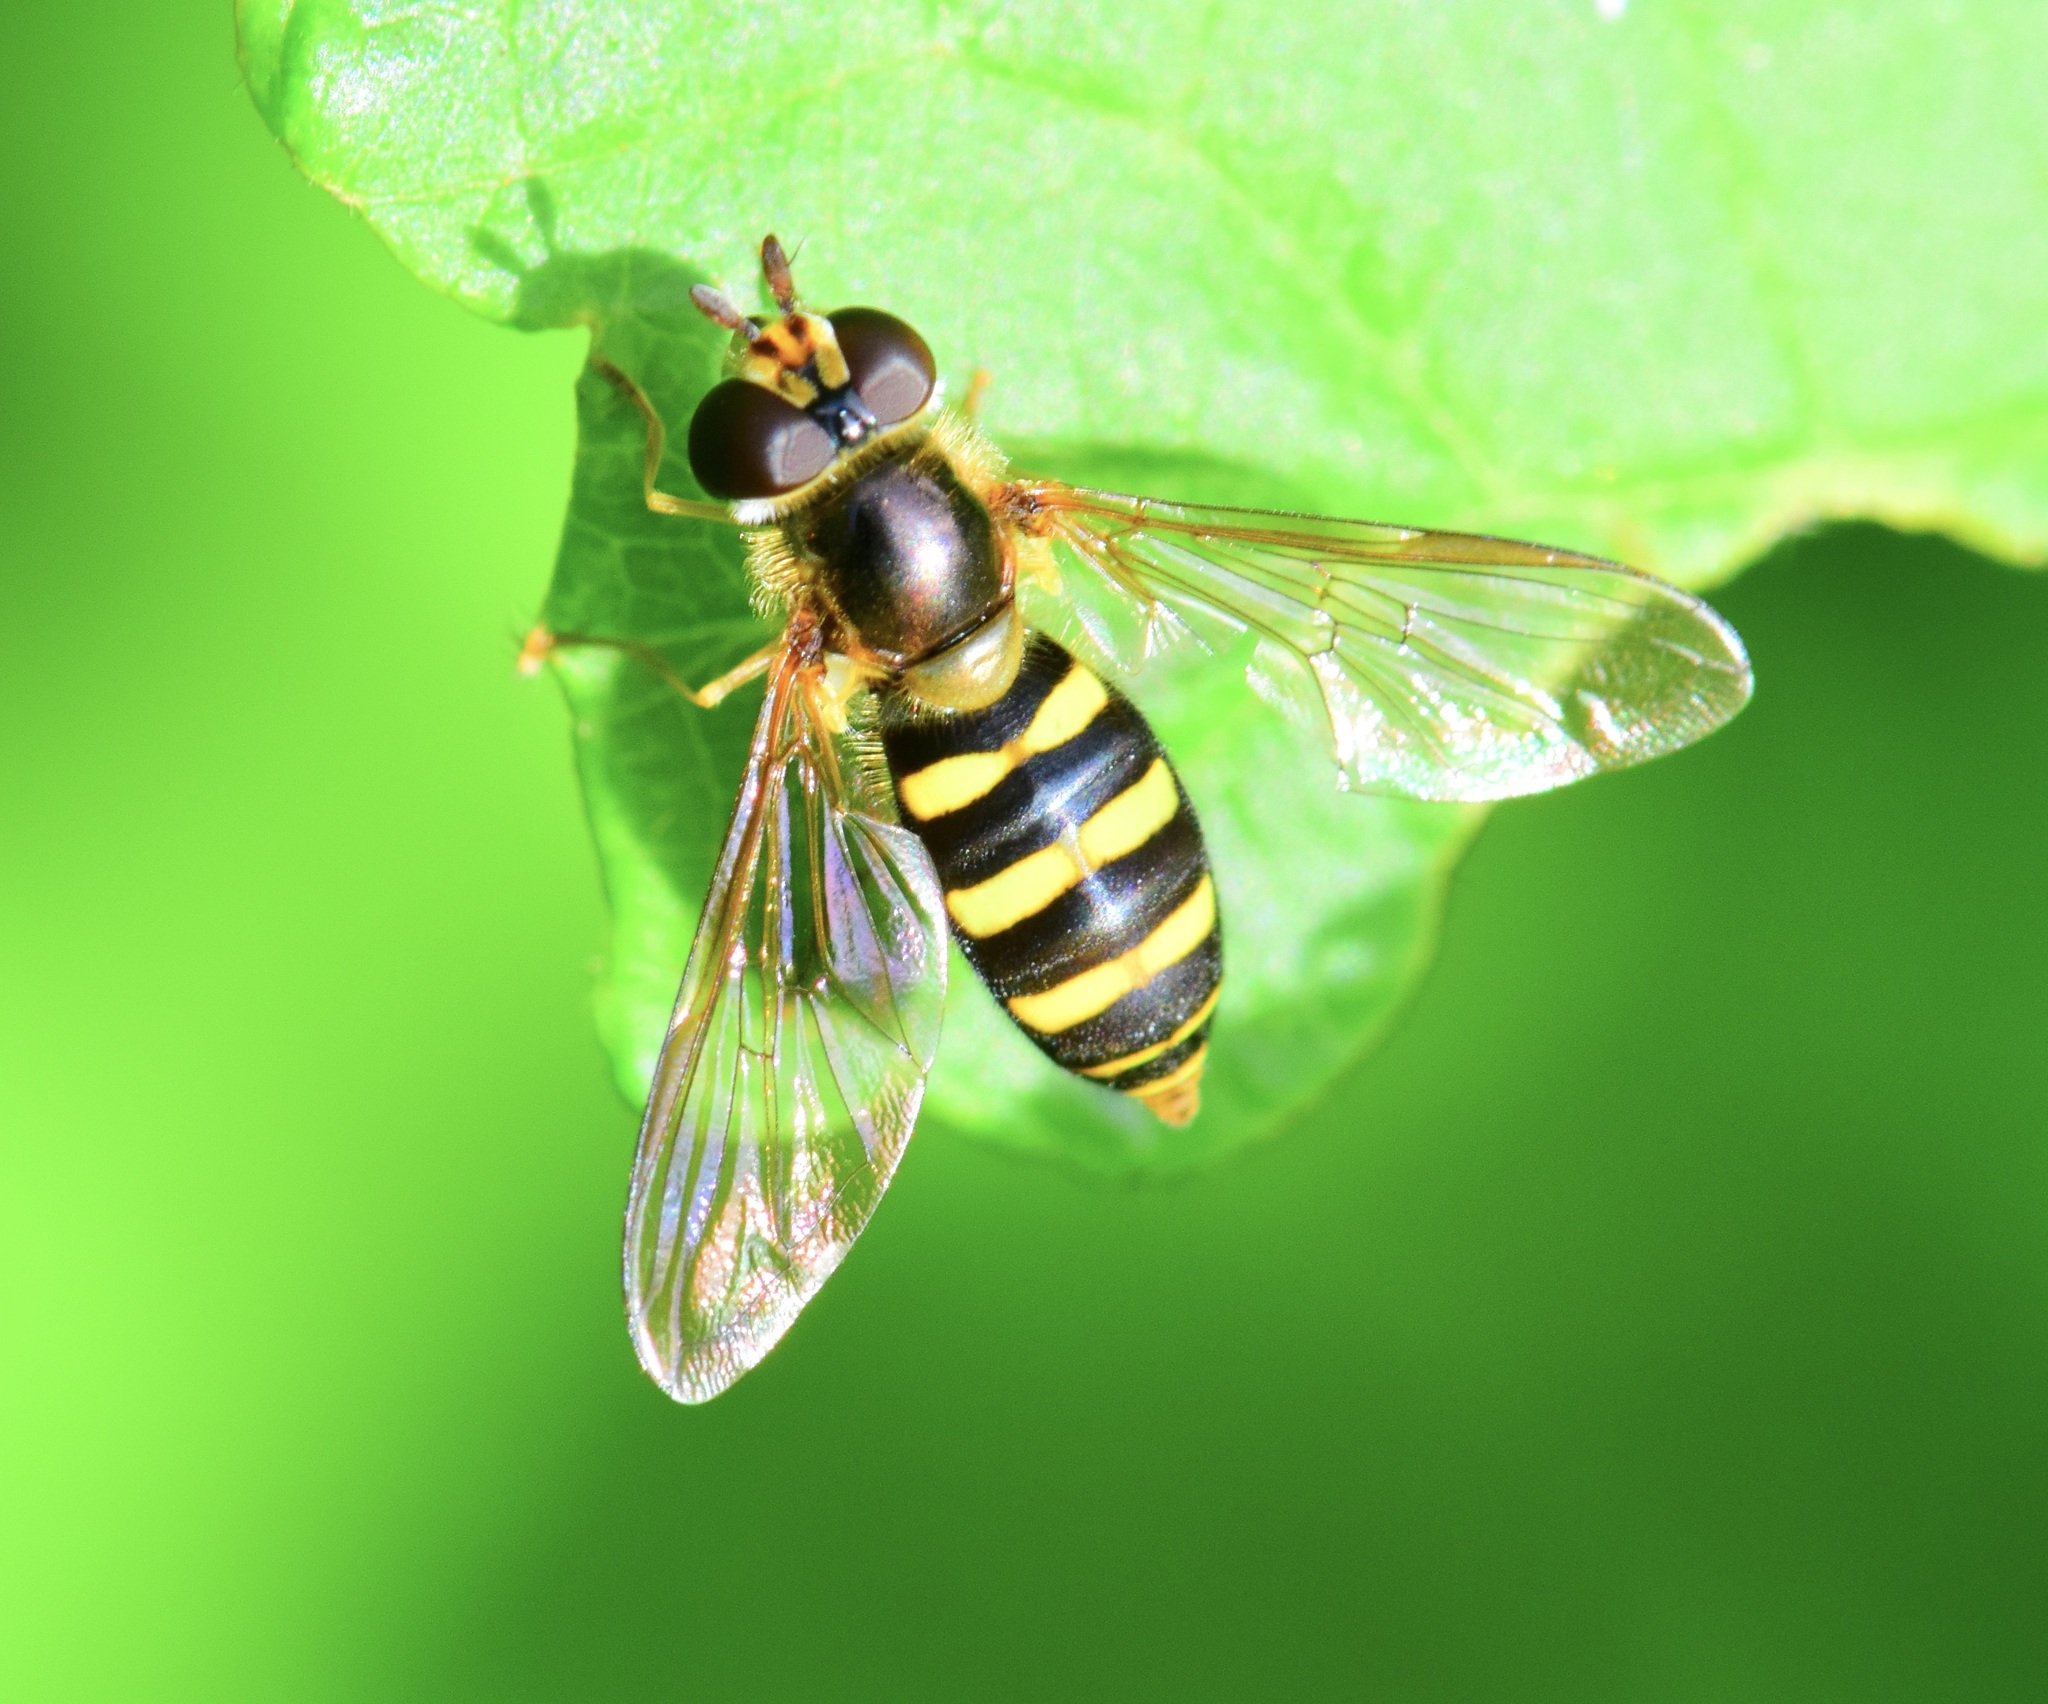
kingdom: Animalia
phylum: Arthropoda
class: Insecta
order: Diptera
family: Syrphidae
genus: Eupeodes
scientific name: Eupeodes
